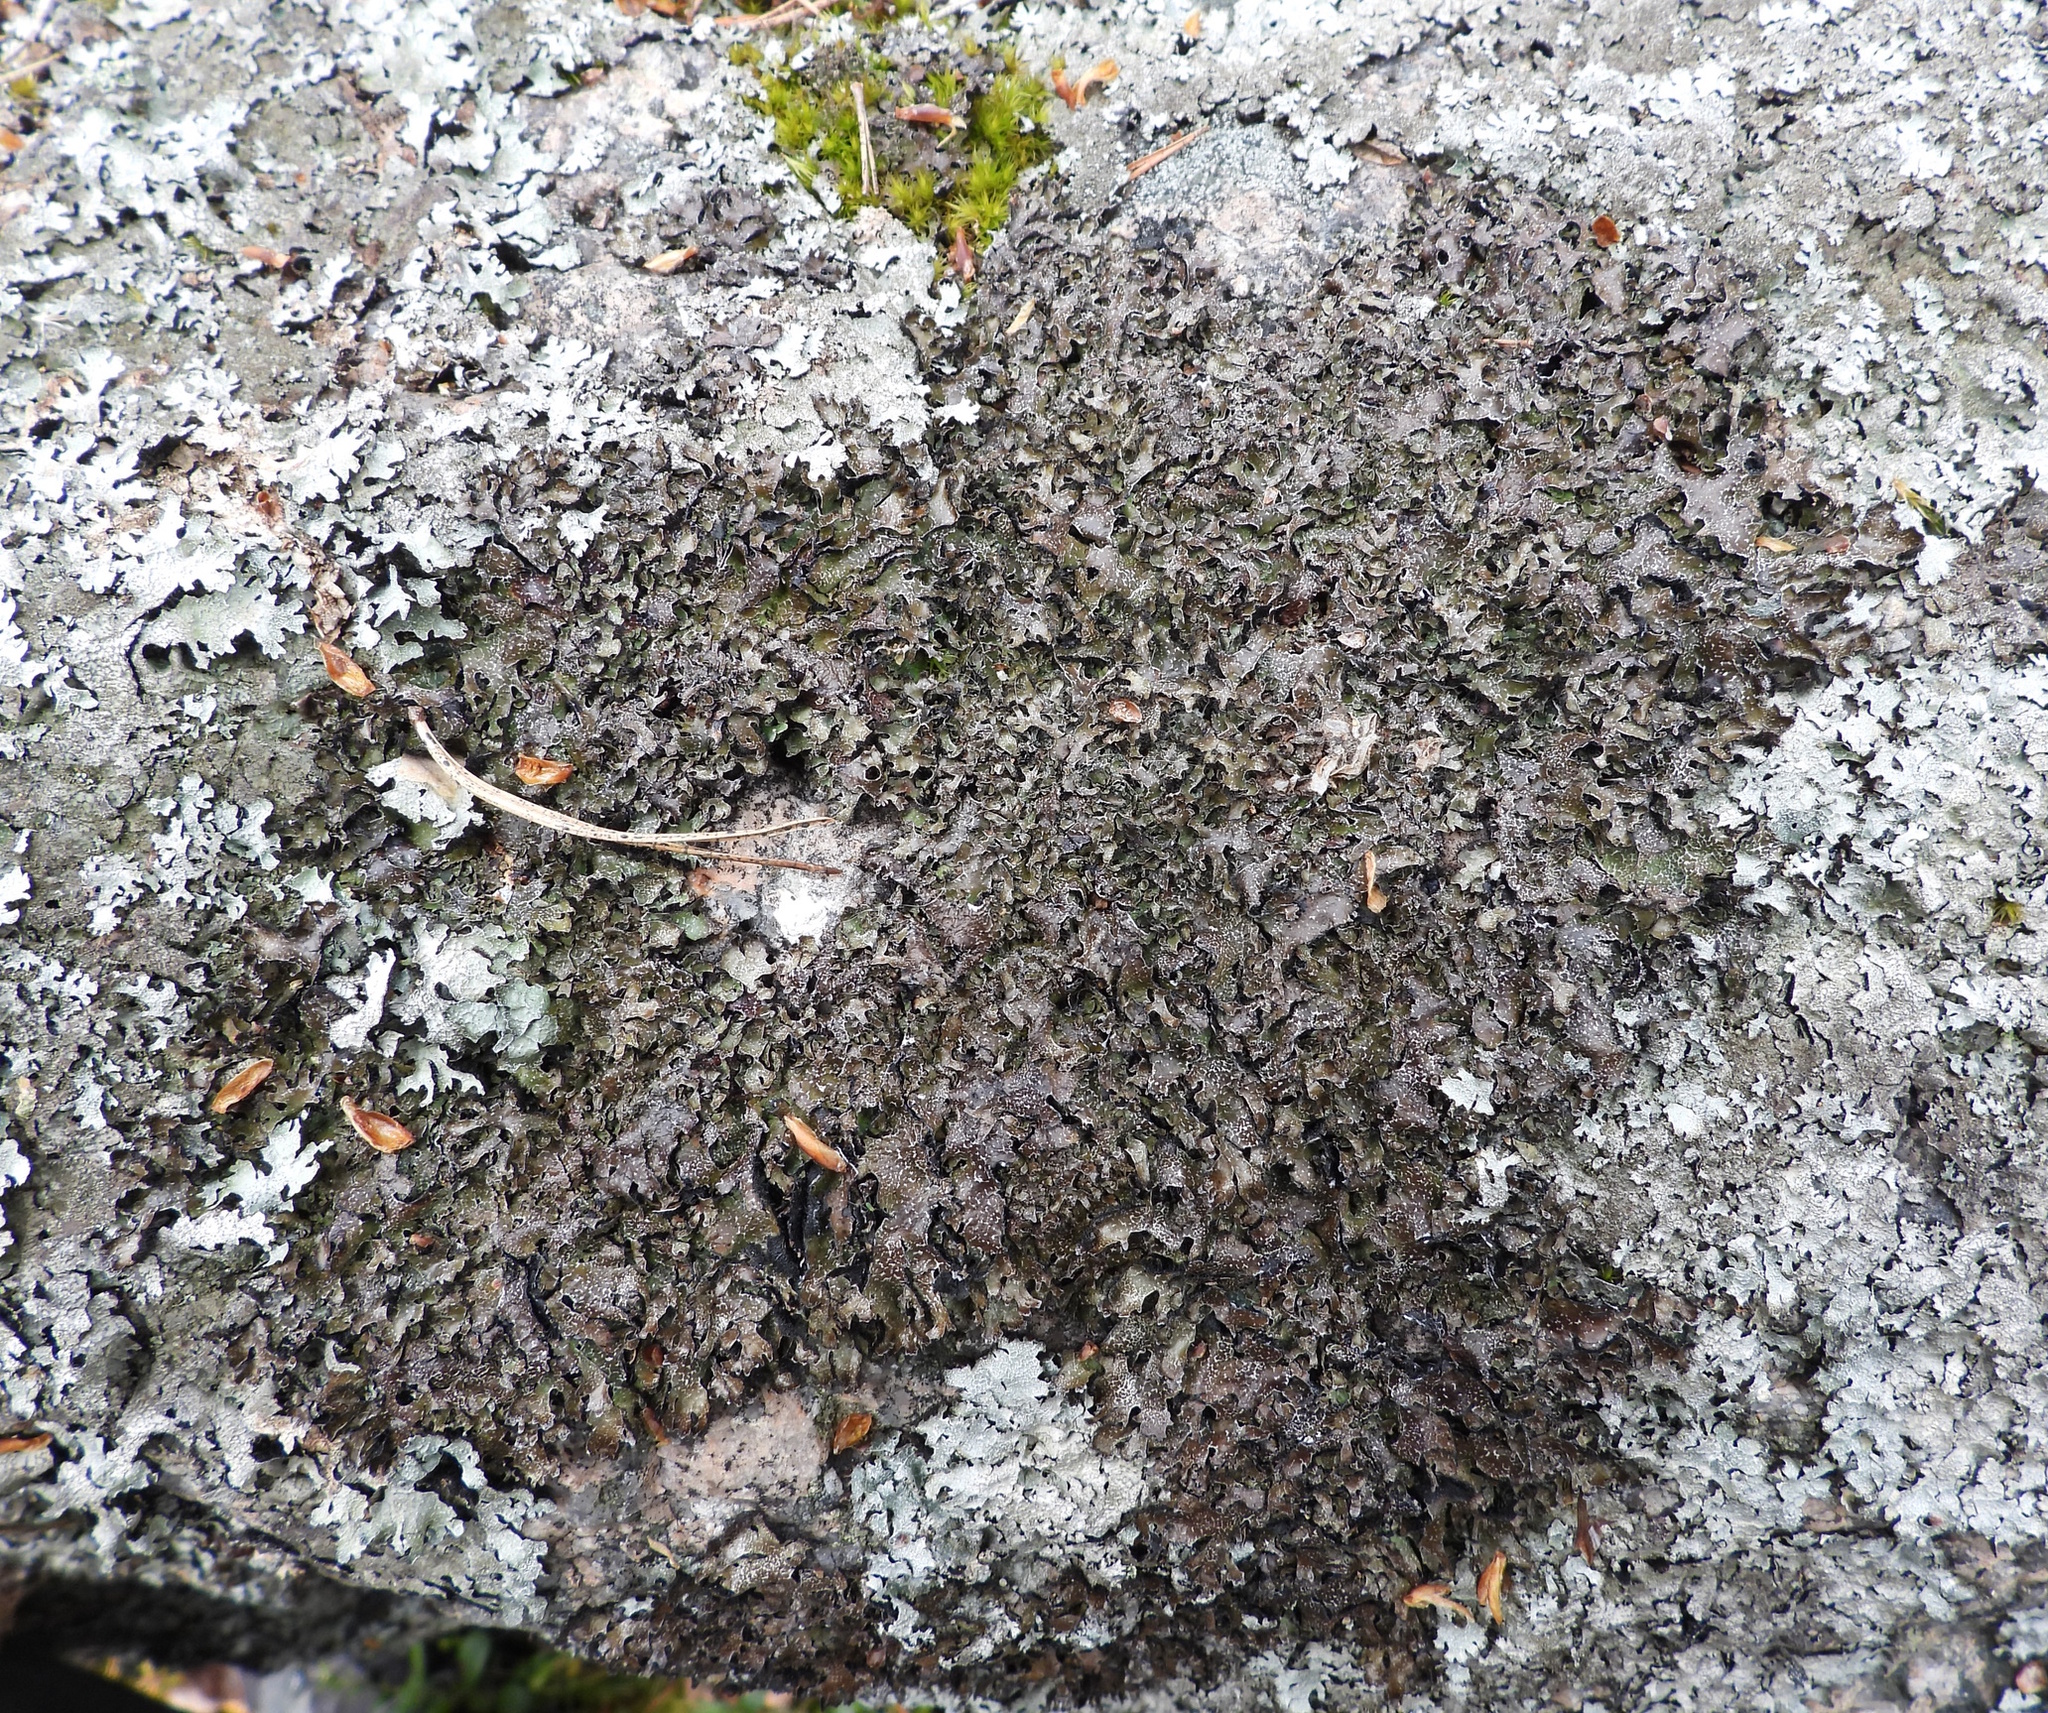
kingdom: Fungi
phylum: Ascomycota
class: Lecanoromycetes
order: Lecanorales
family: Parmeliaceae
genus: Parmelia
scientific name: Parmelia omphalodes
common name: Smoky crottle
